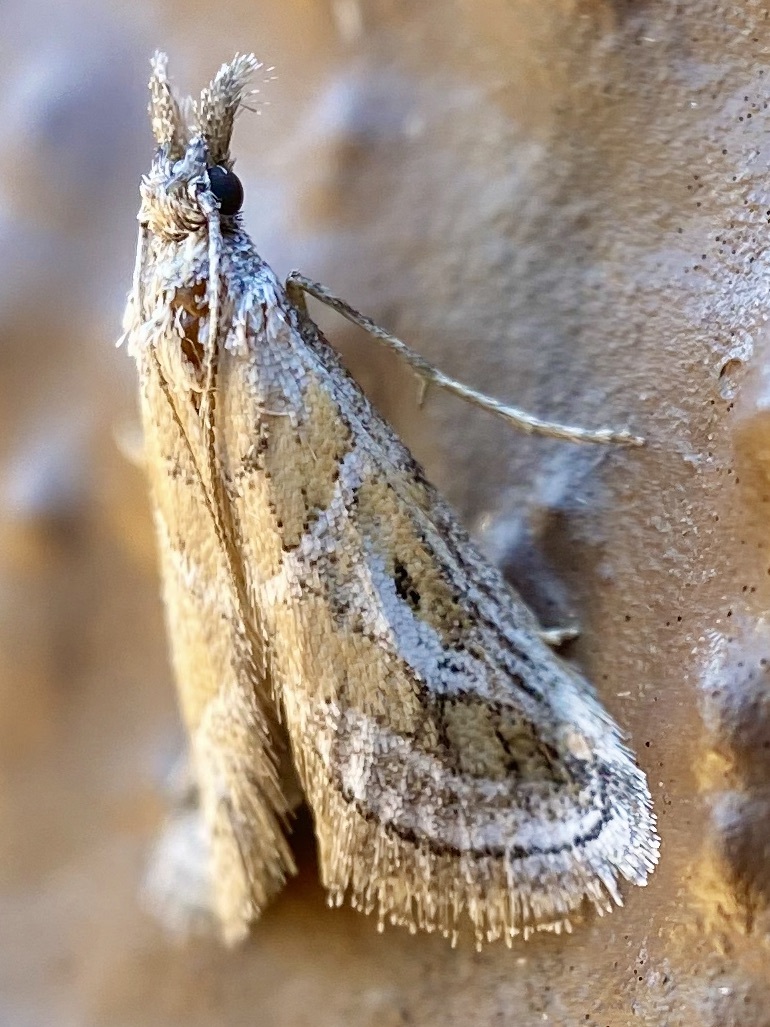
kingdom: Animalia
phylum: Arthropoda
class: Insecta
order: Lepidoptera
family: Pyralidae
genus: Alpheias
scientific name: Alpheias Decaturia pectinalis
